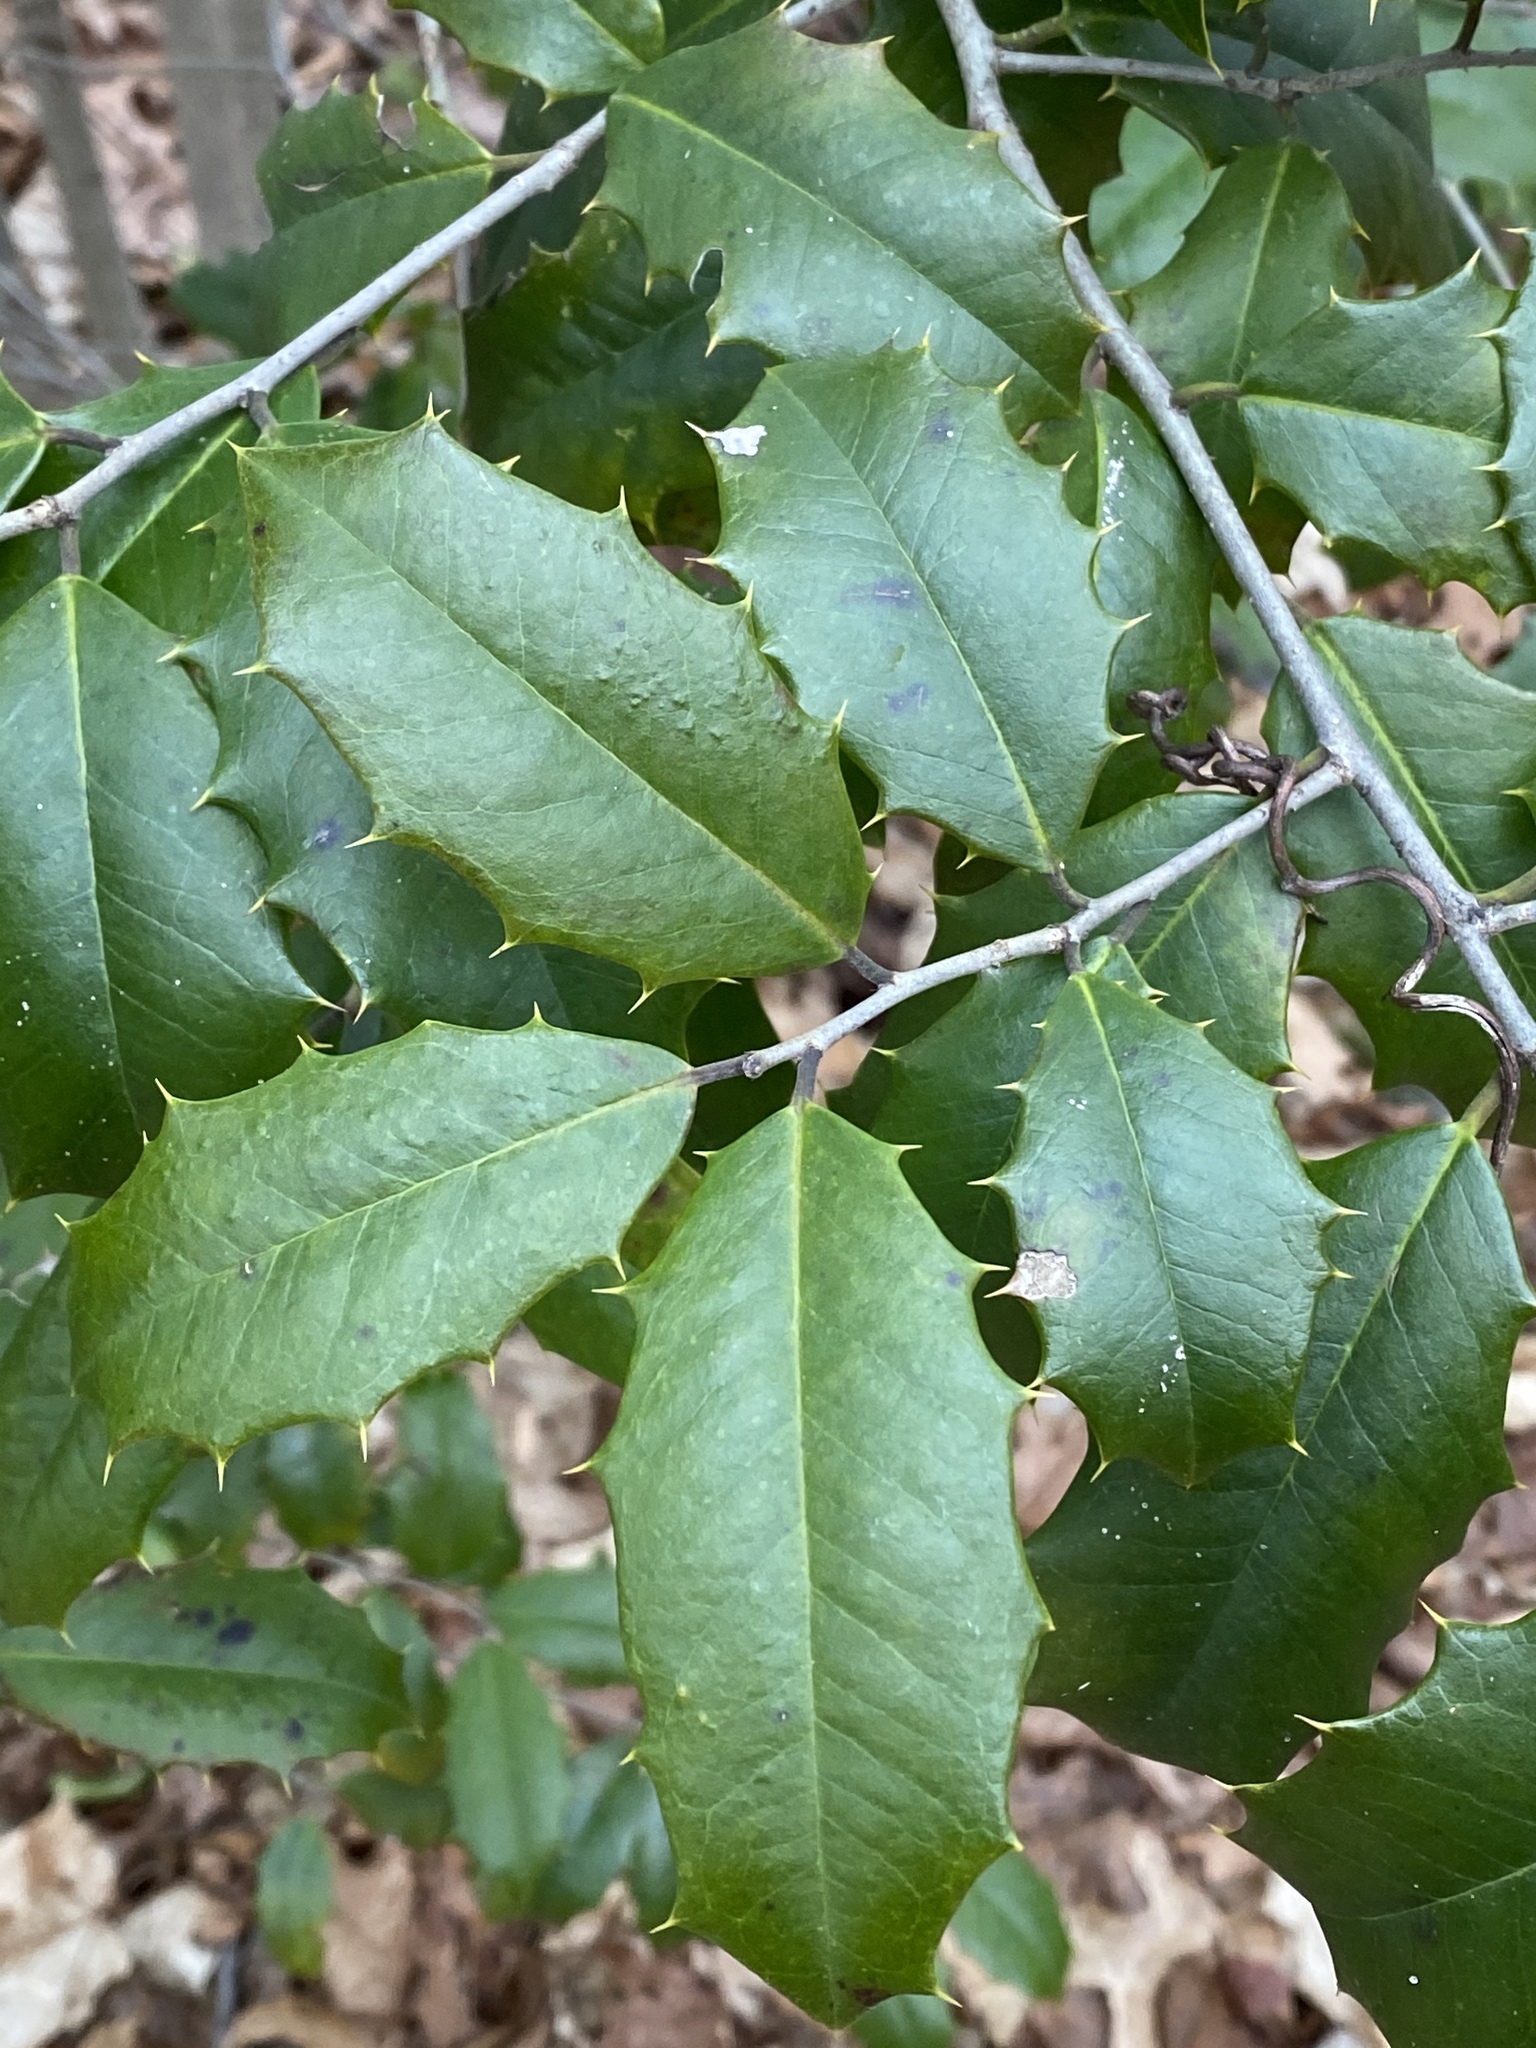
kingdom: Plantae
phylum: Tracheophyta
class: Magnoliopsida
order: Aquifoliales
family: Aquifoliaceae
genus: Ilex
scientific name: Ilex opaca
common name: American holly
